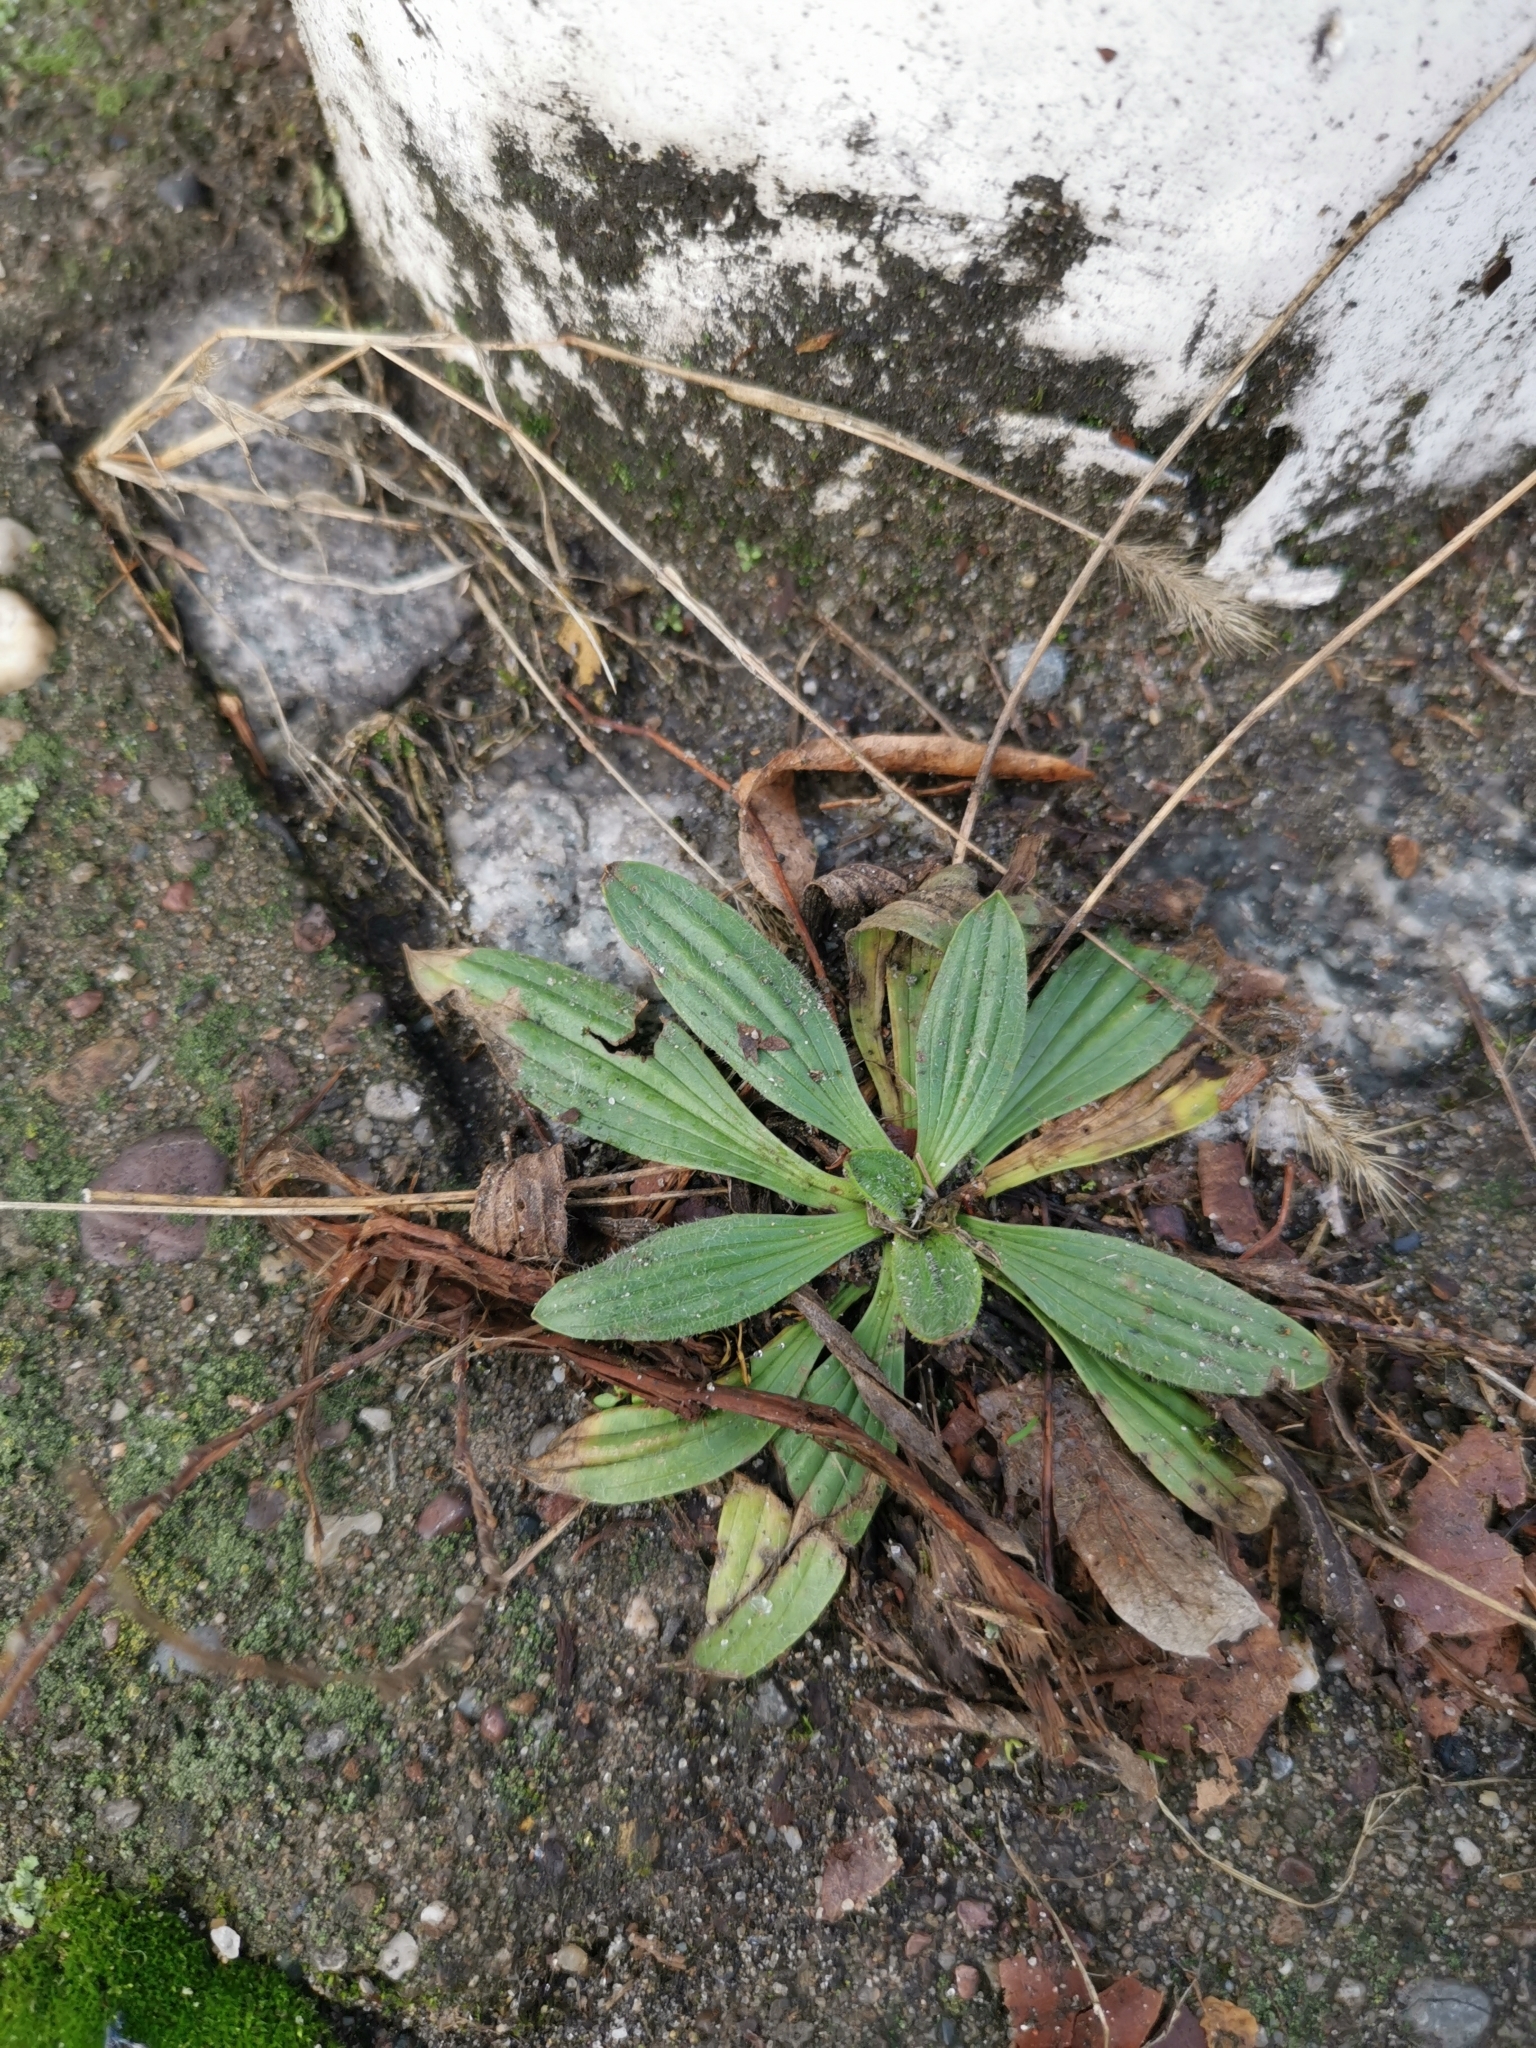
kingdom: Plantae
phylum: Tracheophyta
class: Magnoliopsida
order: Lamiales
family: Plantaginaceae
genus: Plantago
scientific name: Plantago lanceolata
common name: Ribwort plantain
